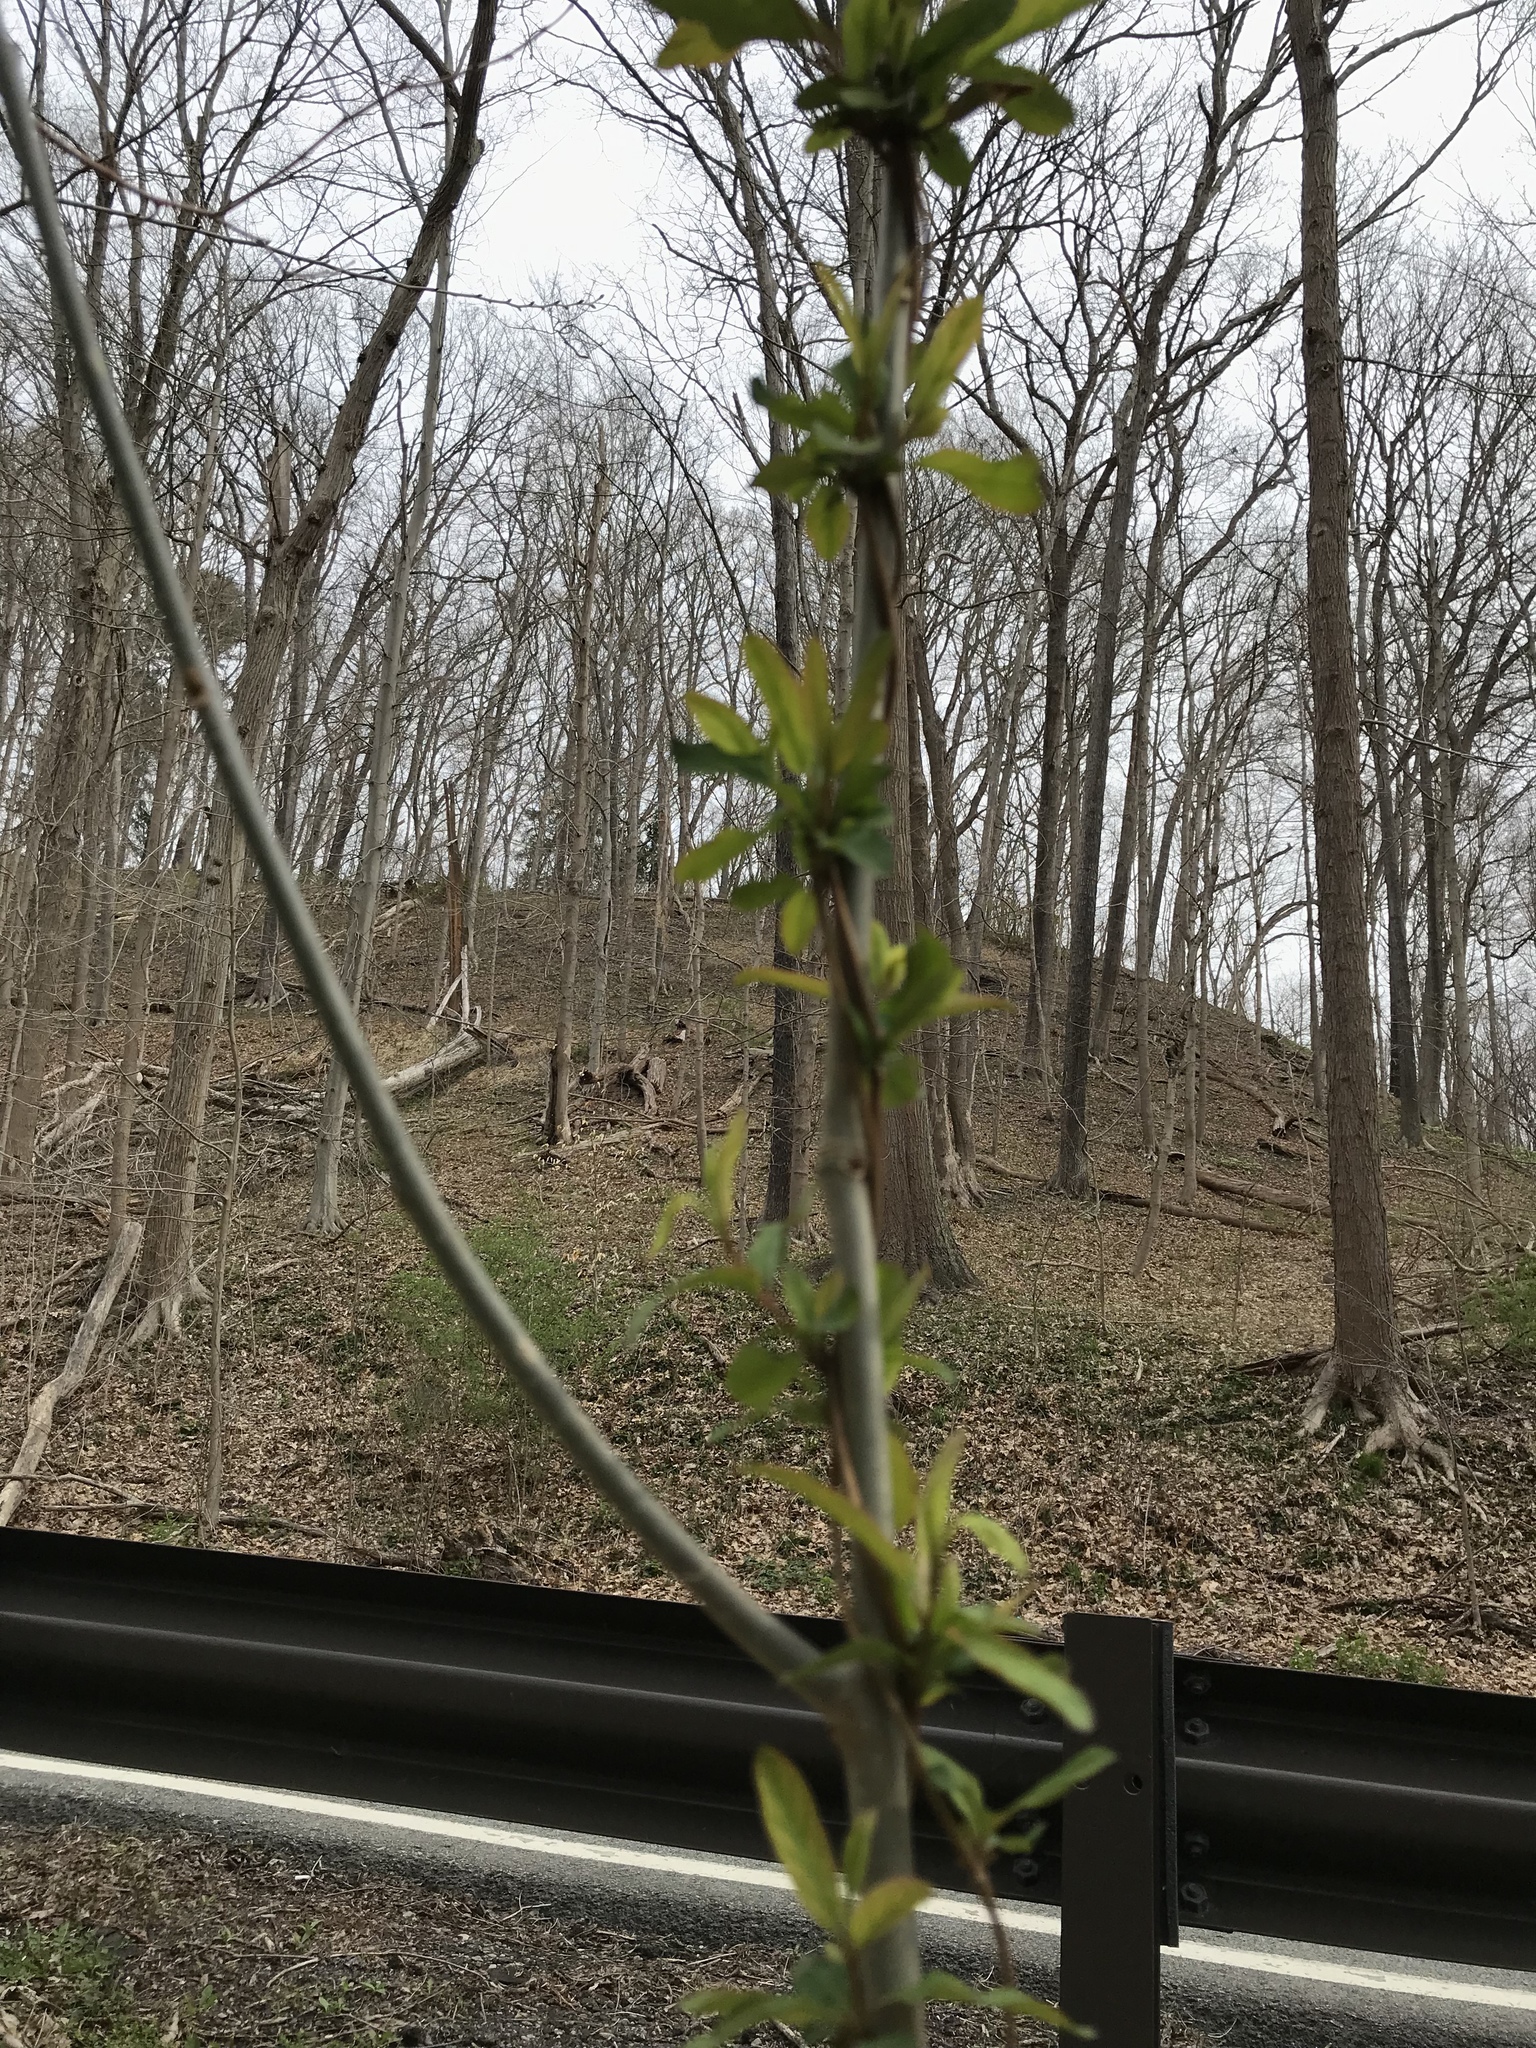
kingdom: Plantae
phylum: Tracheophyta
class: Magnoliopsida
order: Dipsacales
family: Caprifoliaceae
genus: Lonicera
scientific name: Lonicera japonica
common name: Japanese honeysuckle
